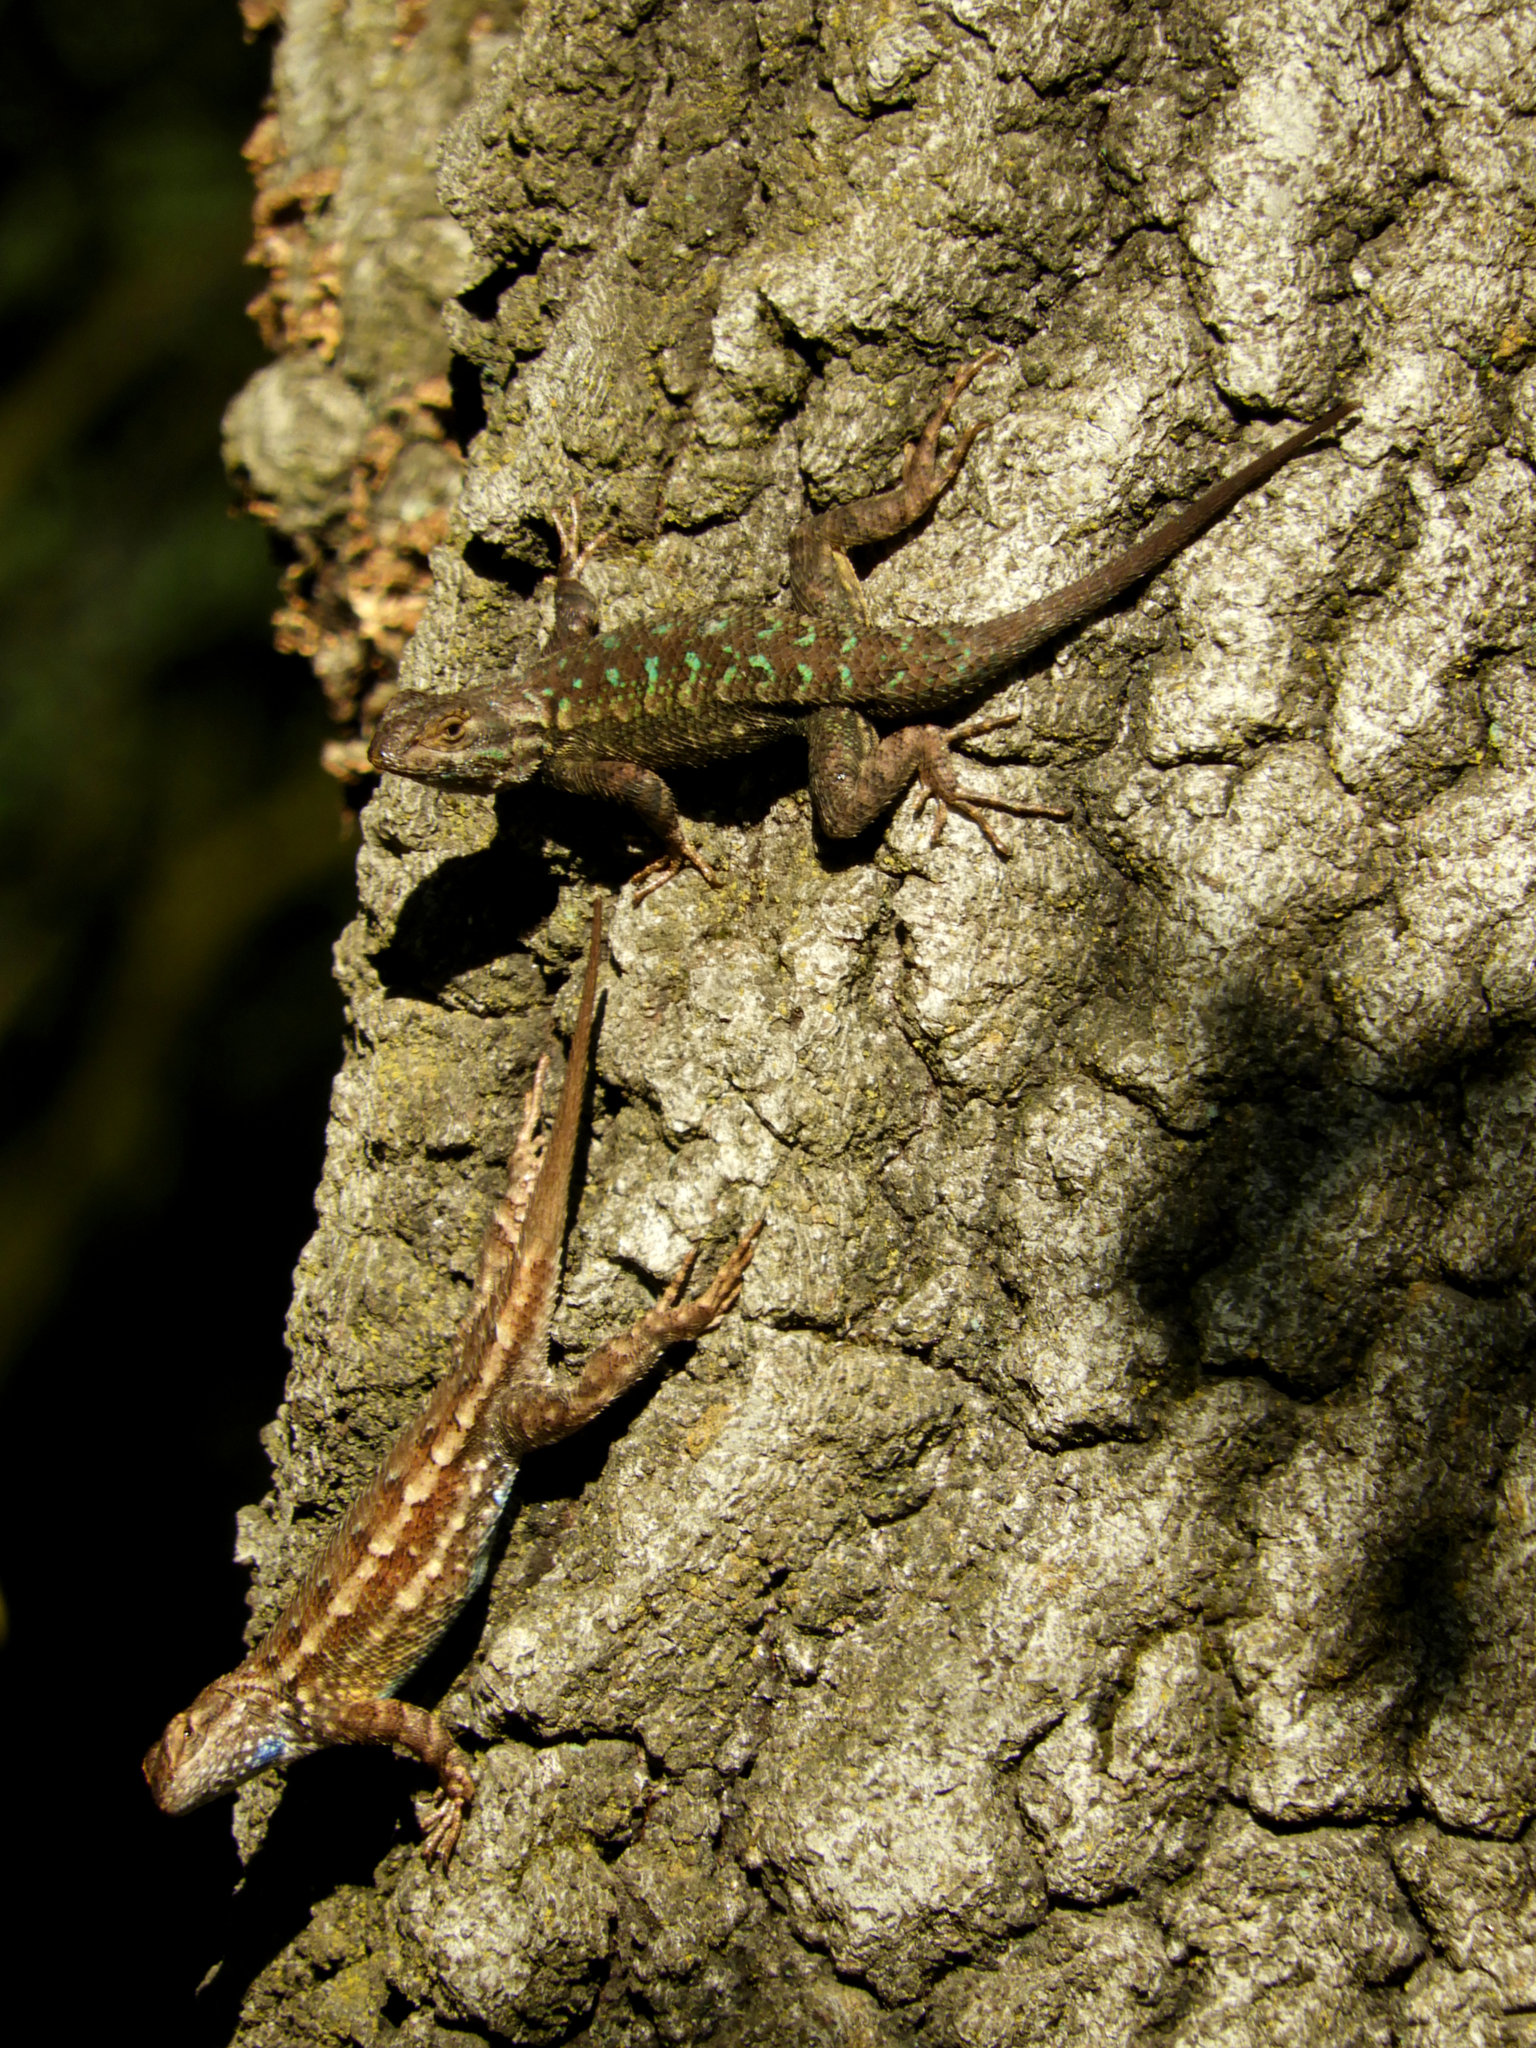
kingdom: Animalia
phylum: Chordata
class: Squamata
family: Phrynosomatidae
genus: Sceloporus
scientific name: Sceloporus occidentalis
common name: Western fence lizard
